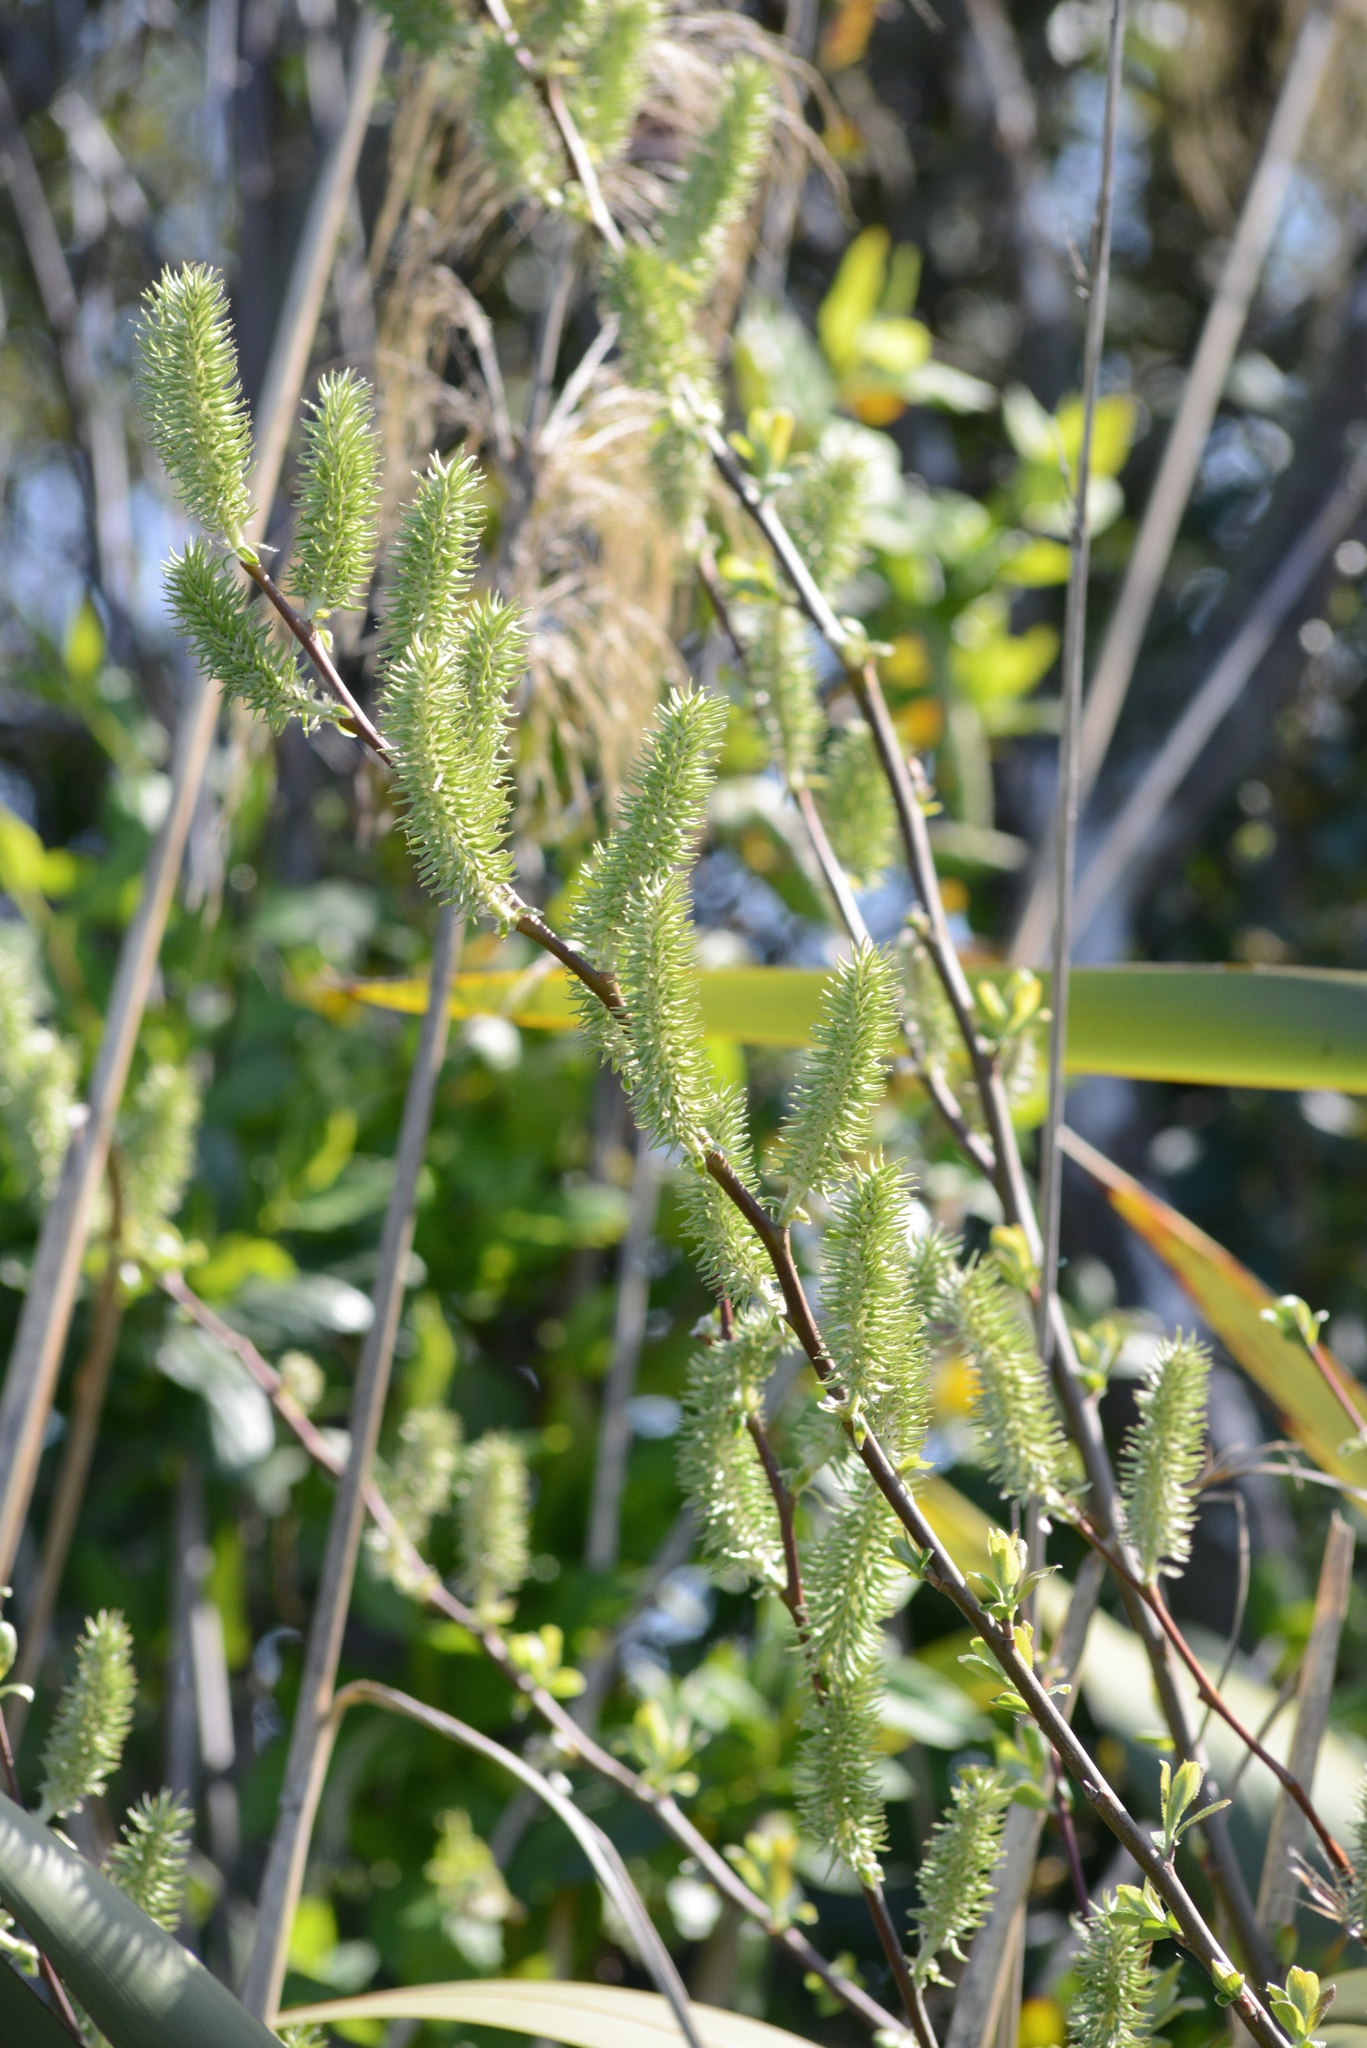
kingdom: Plantae
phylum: Tracheophyta
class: Magnoliopsida
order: Malpighiales
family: Salicaceae
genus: Salix
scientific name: Salix cinerea
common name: Common sallow
